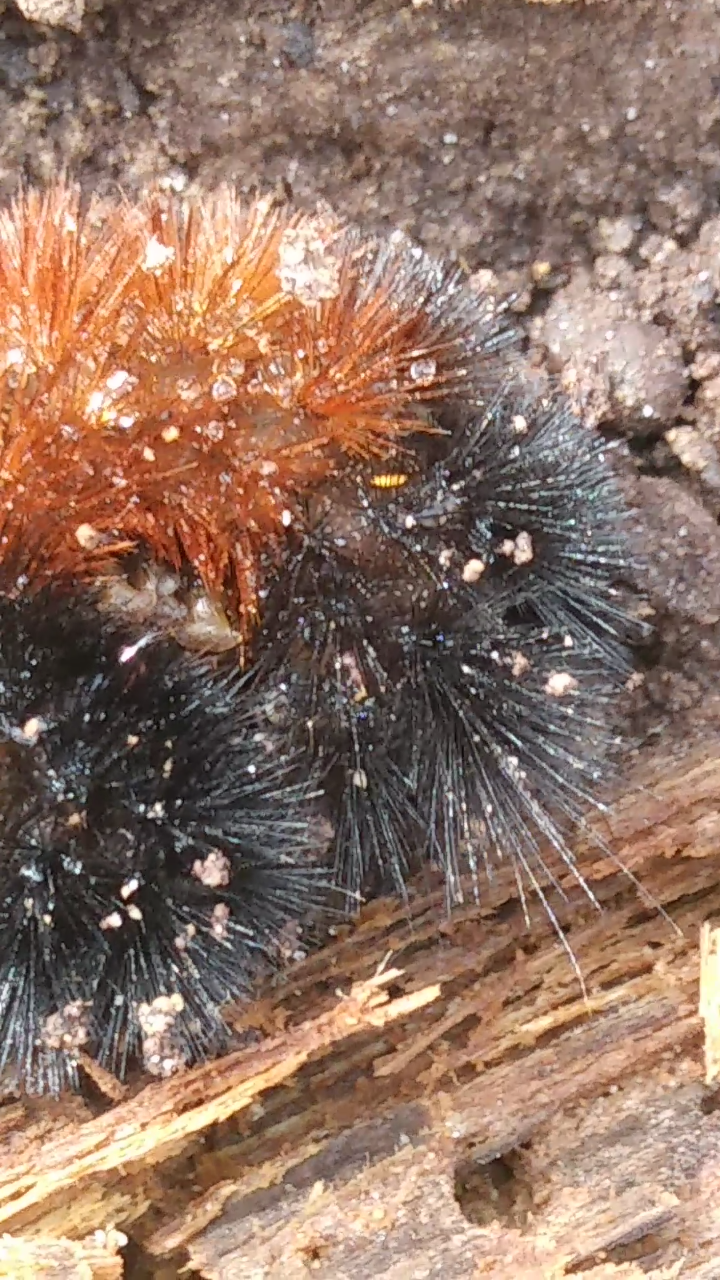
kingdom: Animalia
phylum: Arthropoda
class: Insecta
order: Lepidoptera
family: Erebidae
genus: Pyrrharctia
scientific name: Pyrrharctia isabella
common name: Isabella tiger moth
